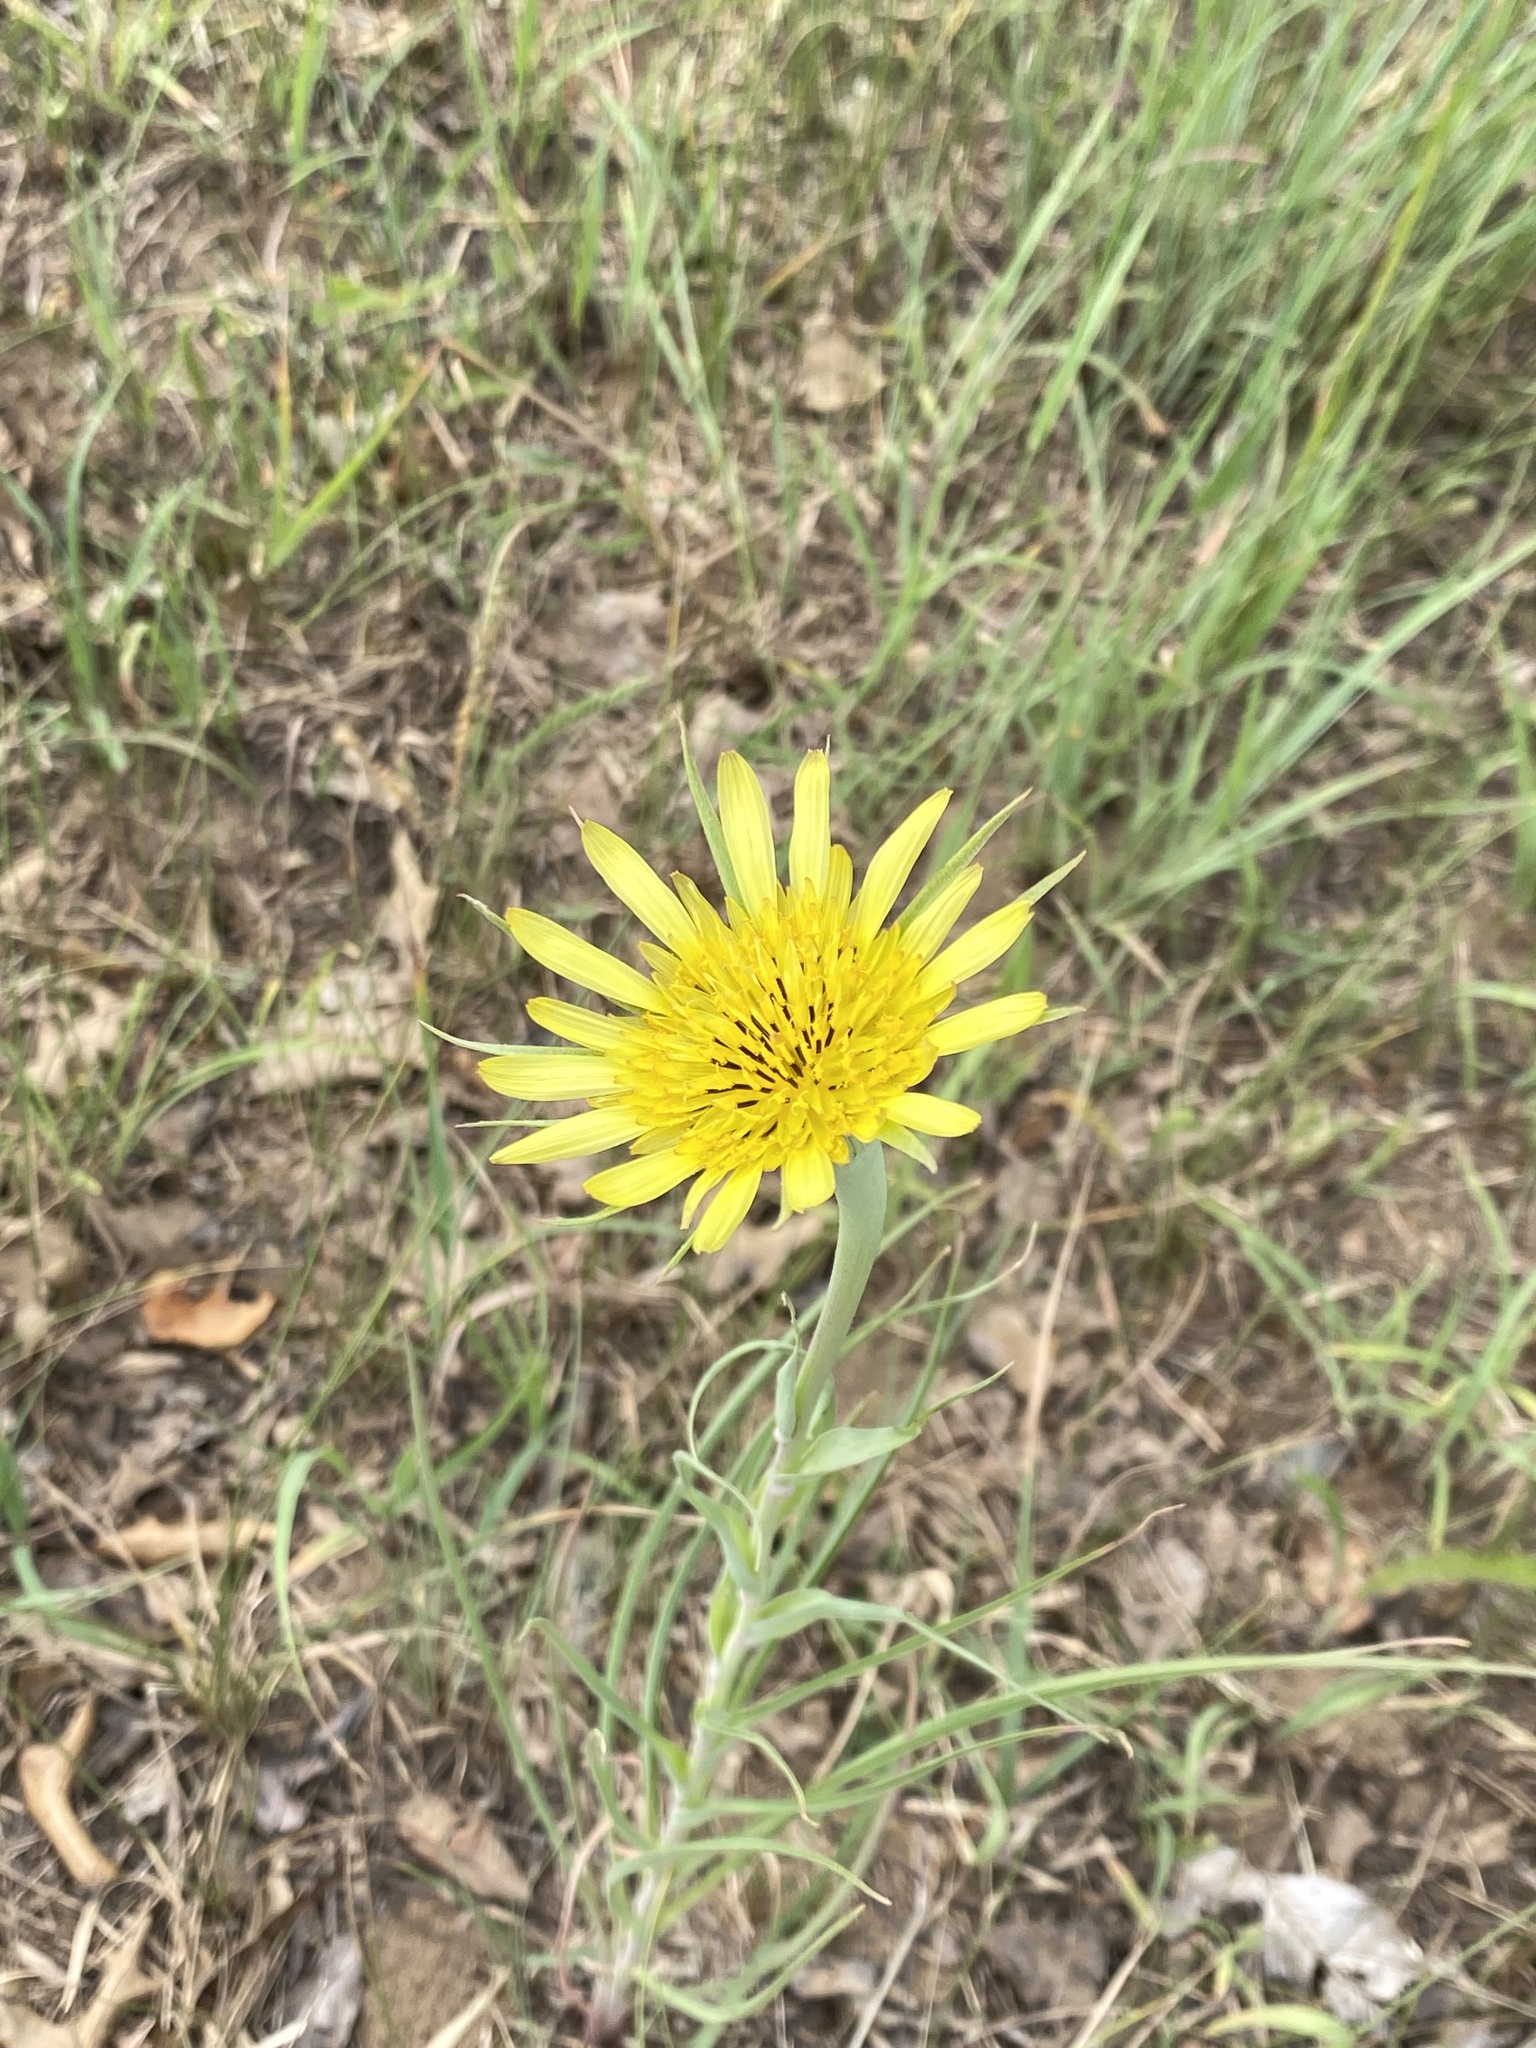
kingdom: Plantae
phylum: Tracheophyta
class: Magnoliopsida
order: Asterales
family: Asteraceae
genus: Tragopogon
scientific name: Tragopogon dubius
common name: Yellow salsify
